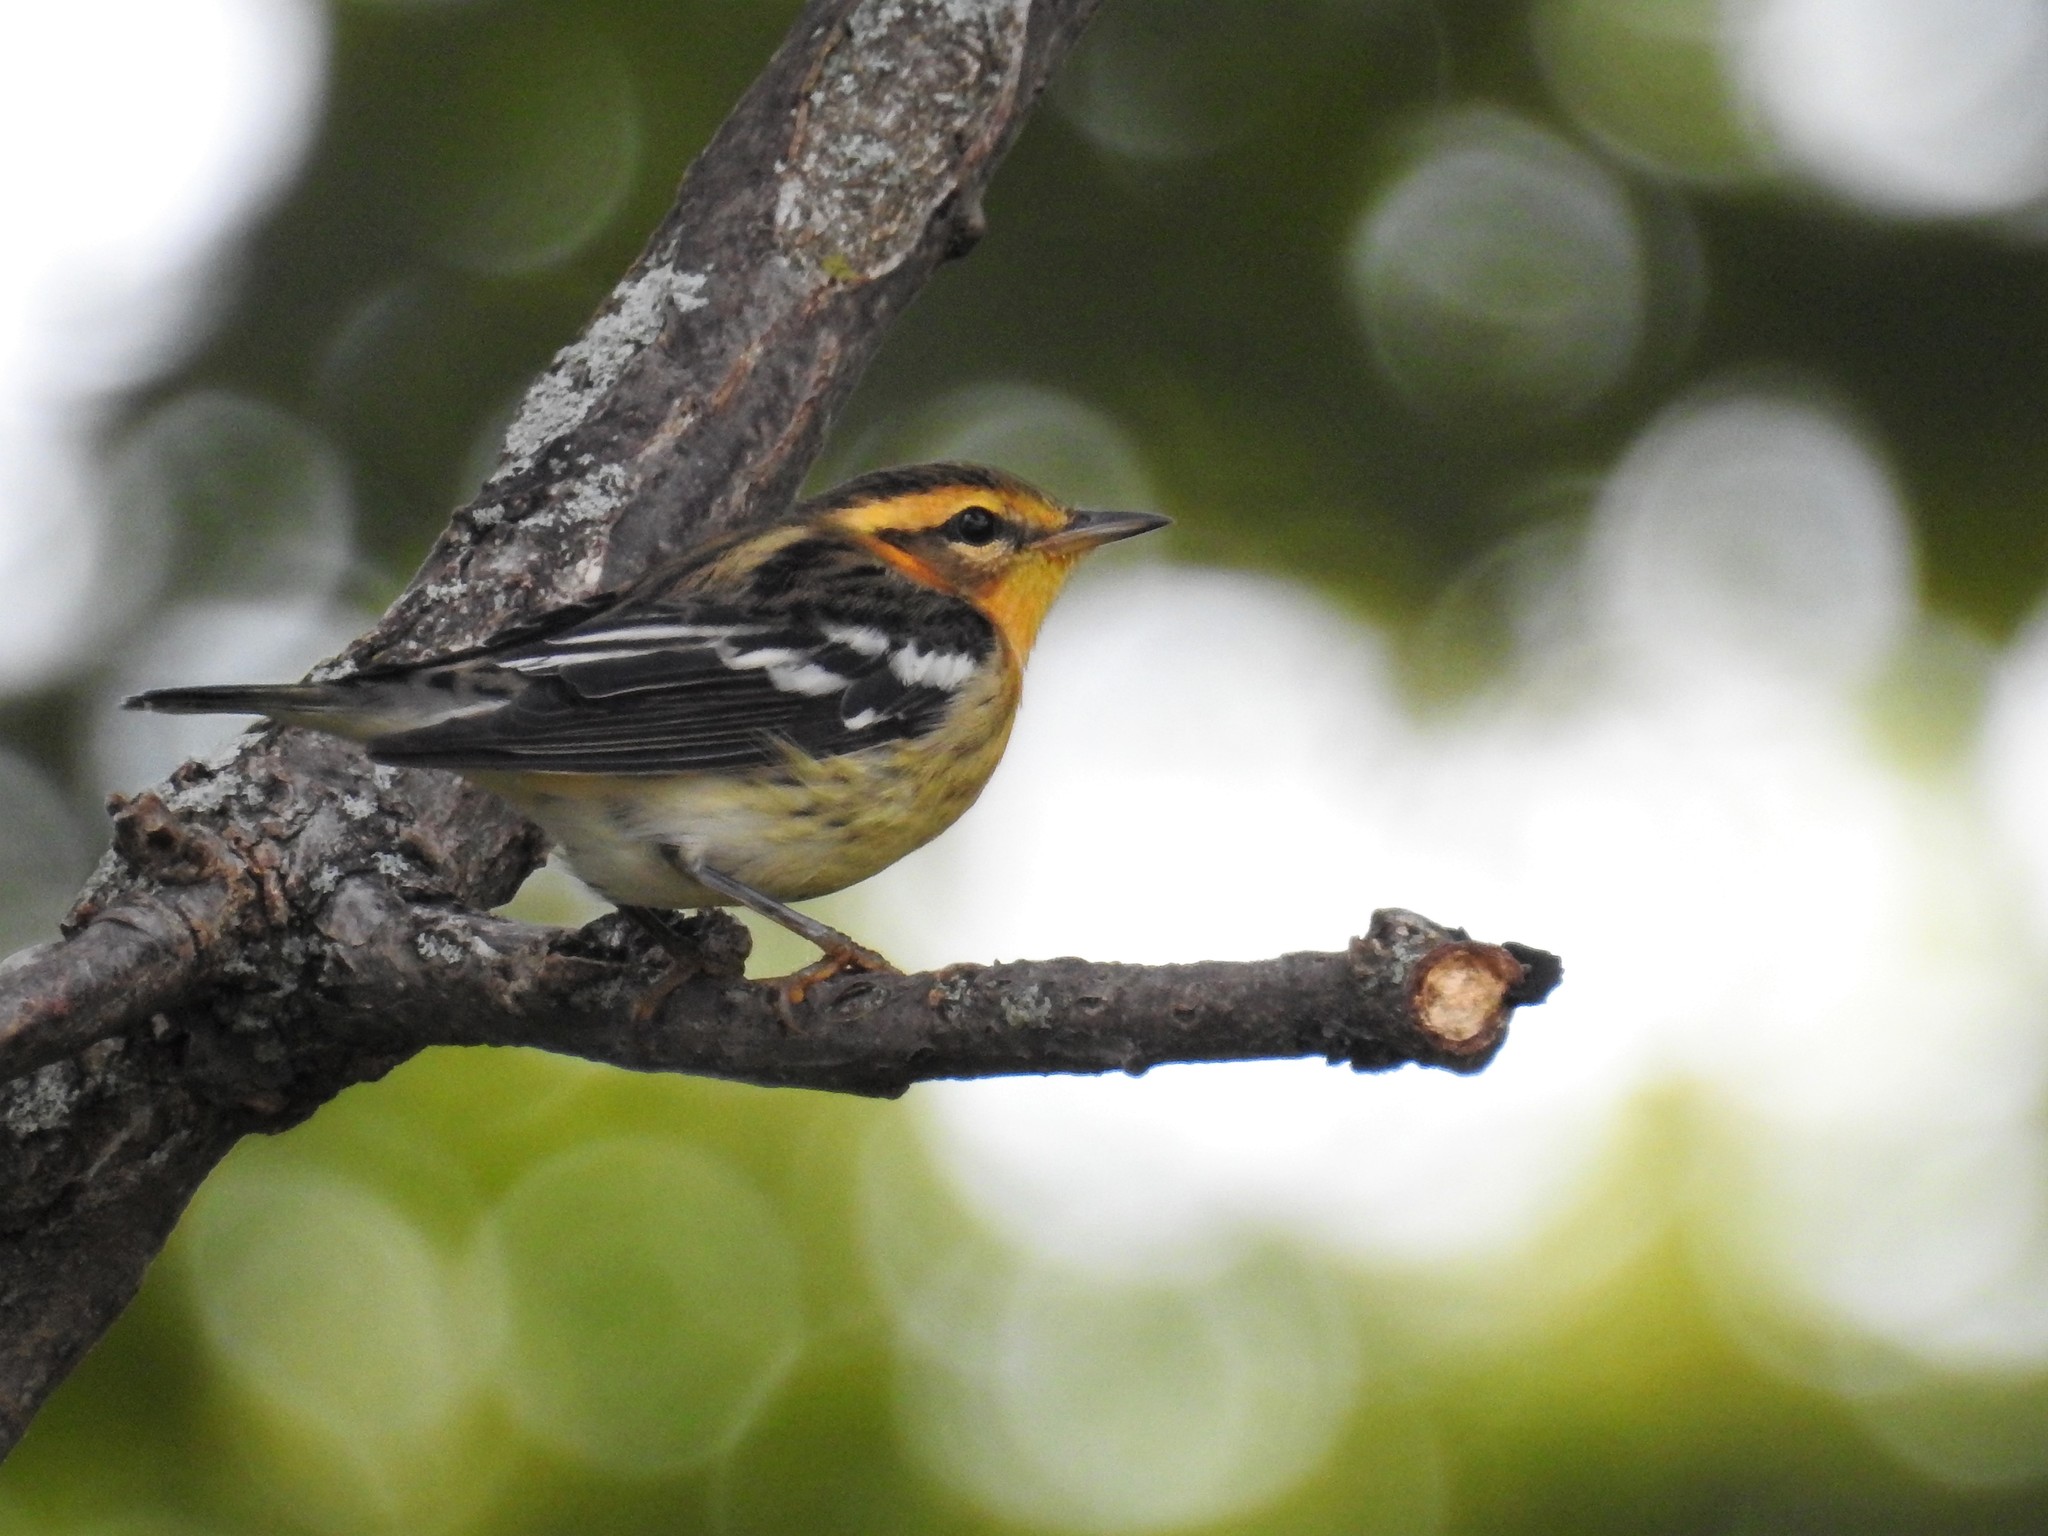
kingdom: Animalia
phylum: Chordata
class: Aves
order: Passeriformes
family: Parulidae
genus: Setophaga
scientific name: Setophaga fusca
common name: Blackburnian warbler
